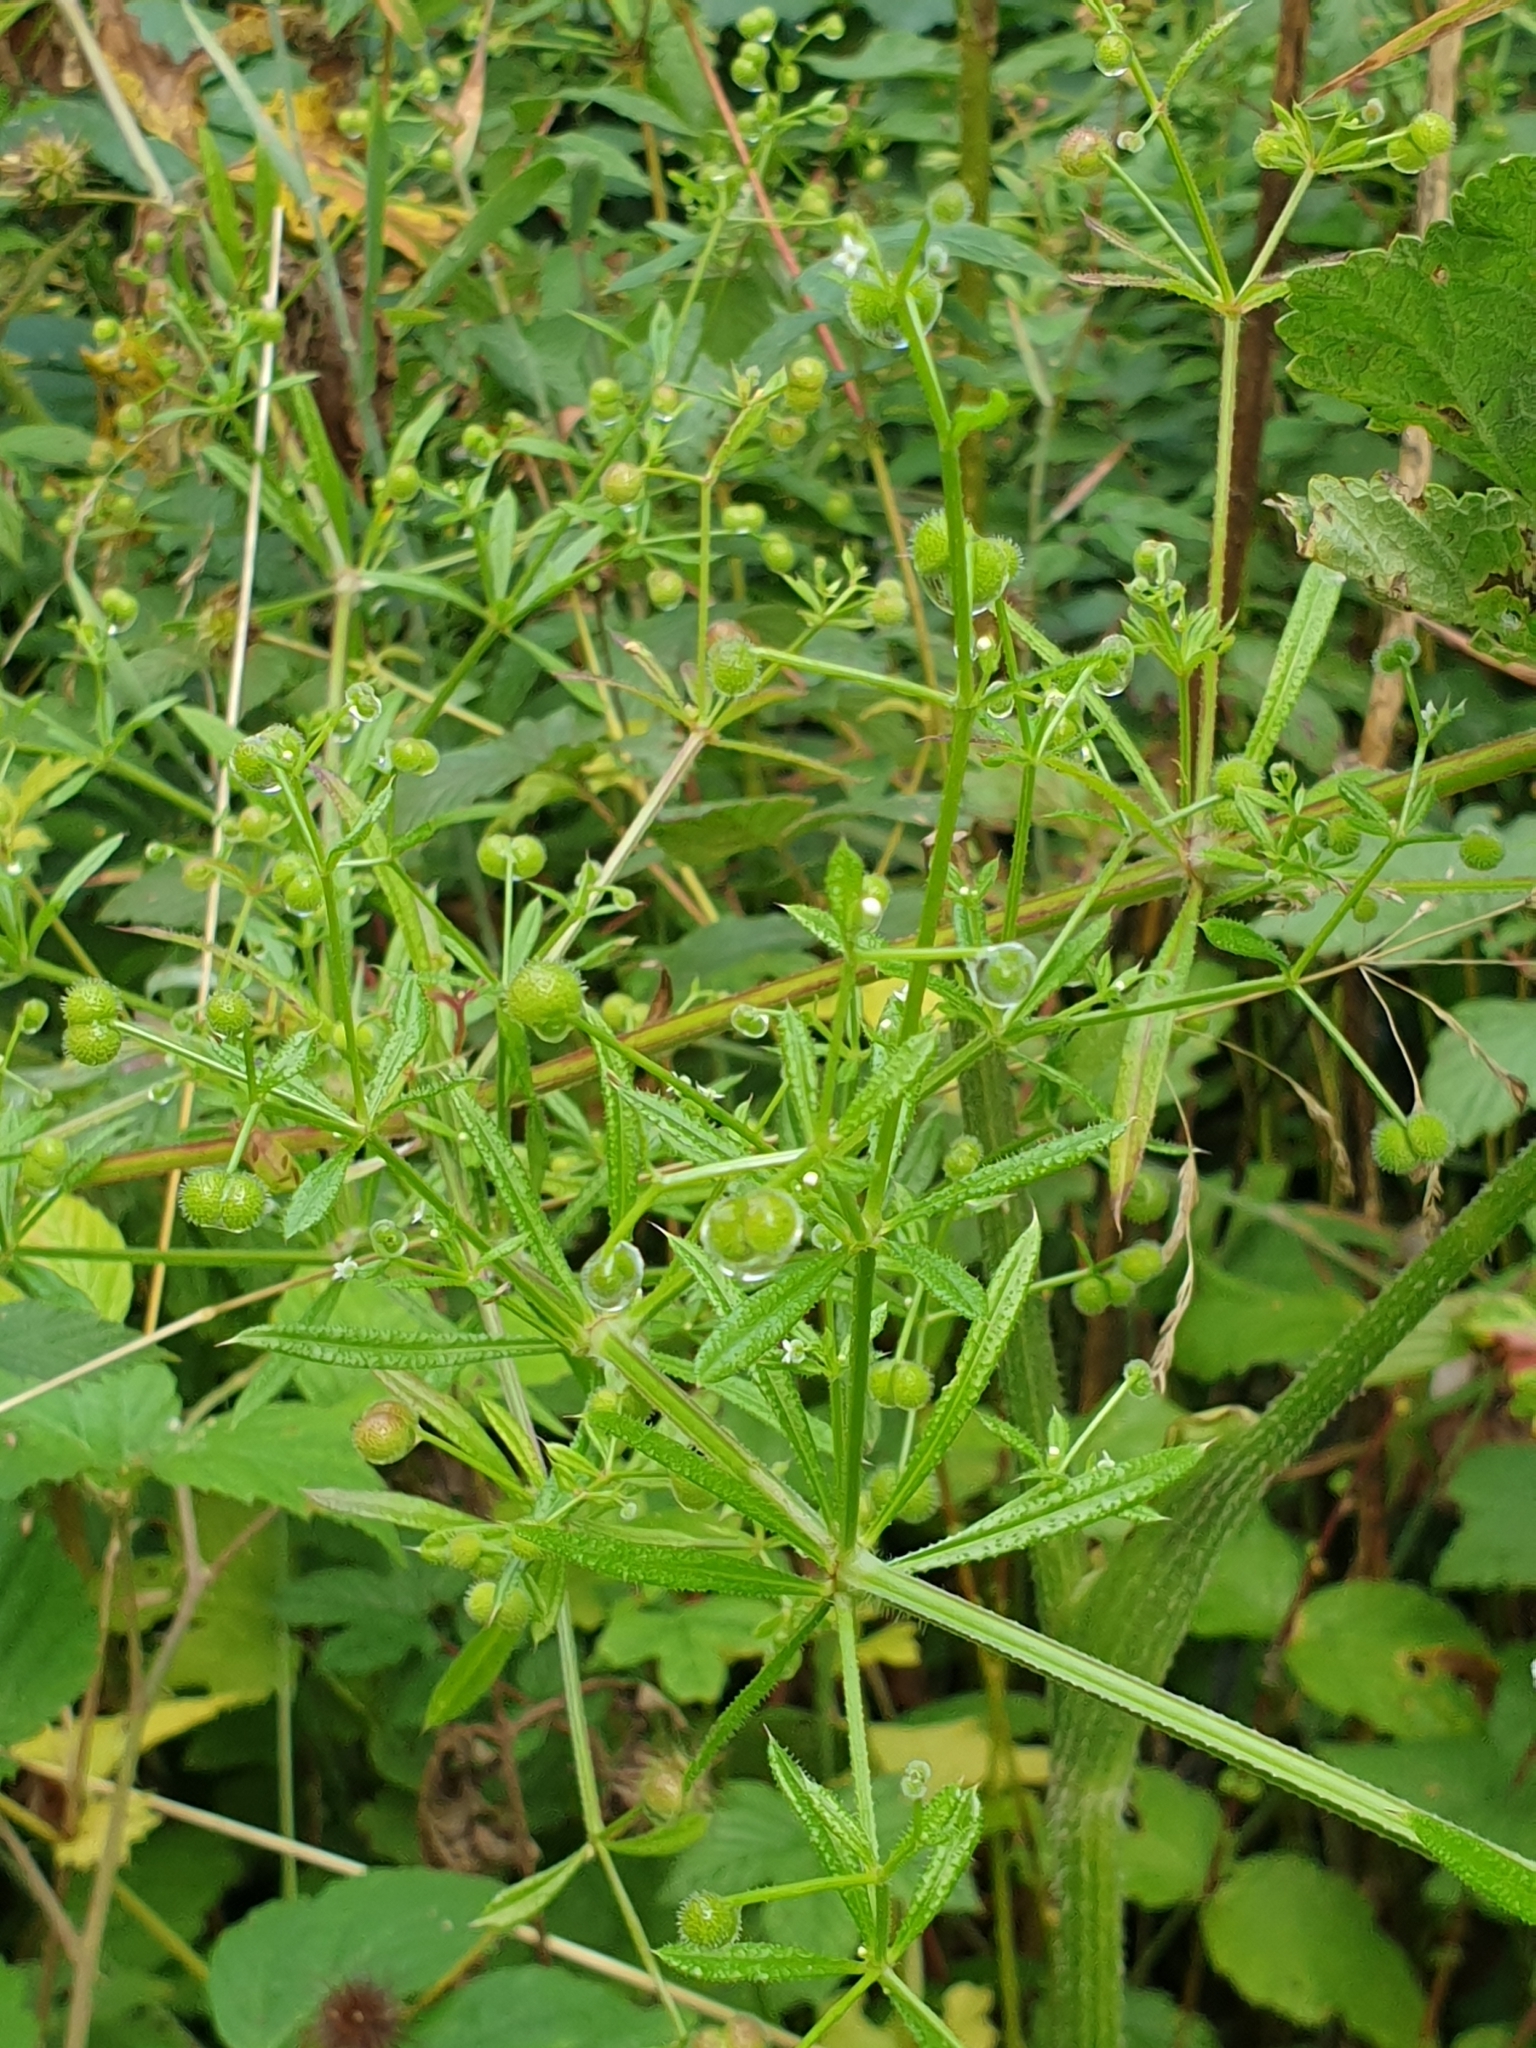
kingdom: Plantae
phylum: Tracheophyta
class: Magnoliopsida
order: Gentianales
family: Rubiaceae
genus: Galium
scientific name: Galium aparine
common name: Cleavers
